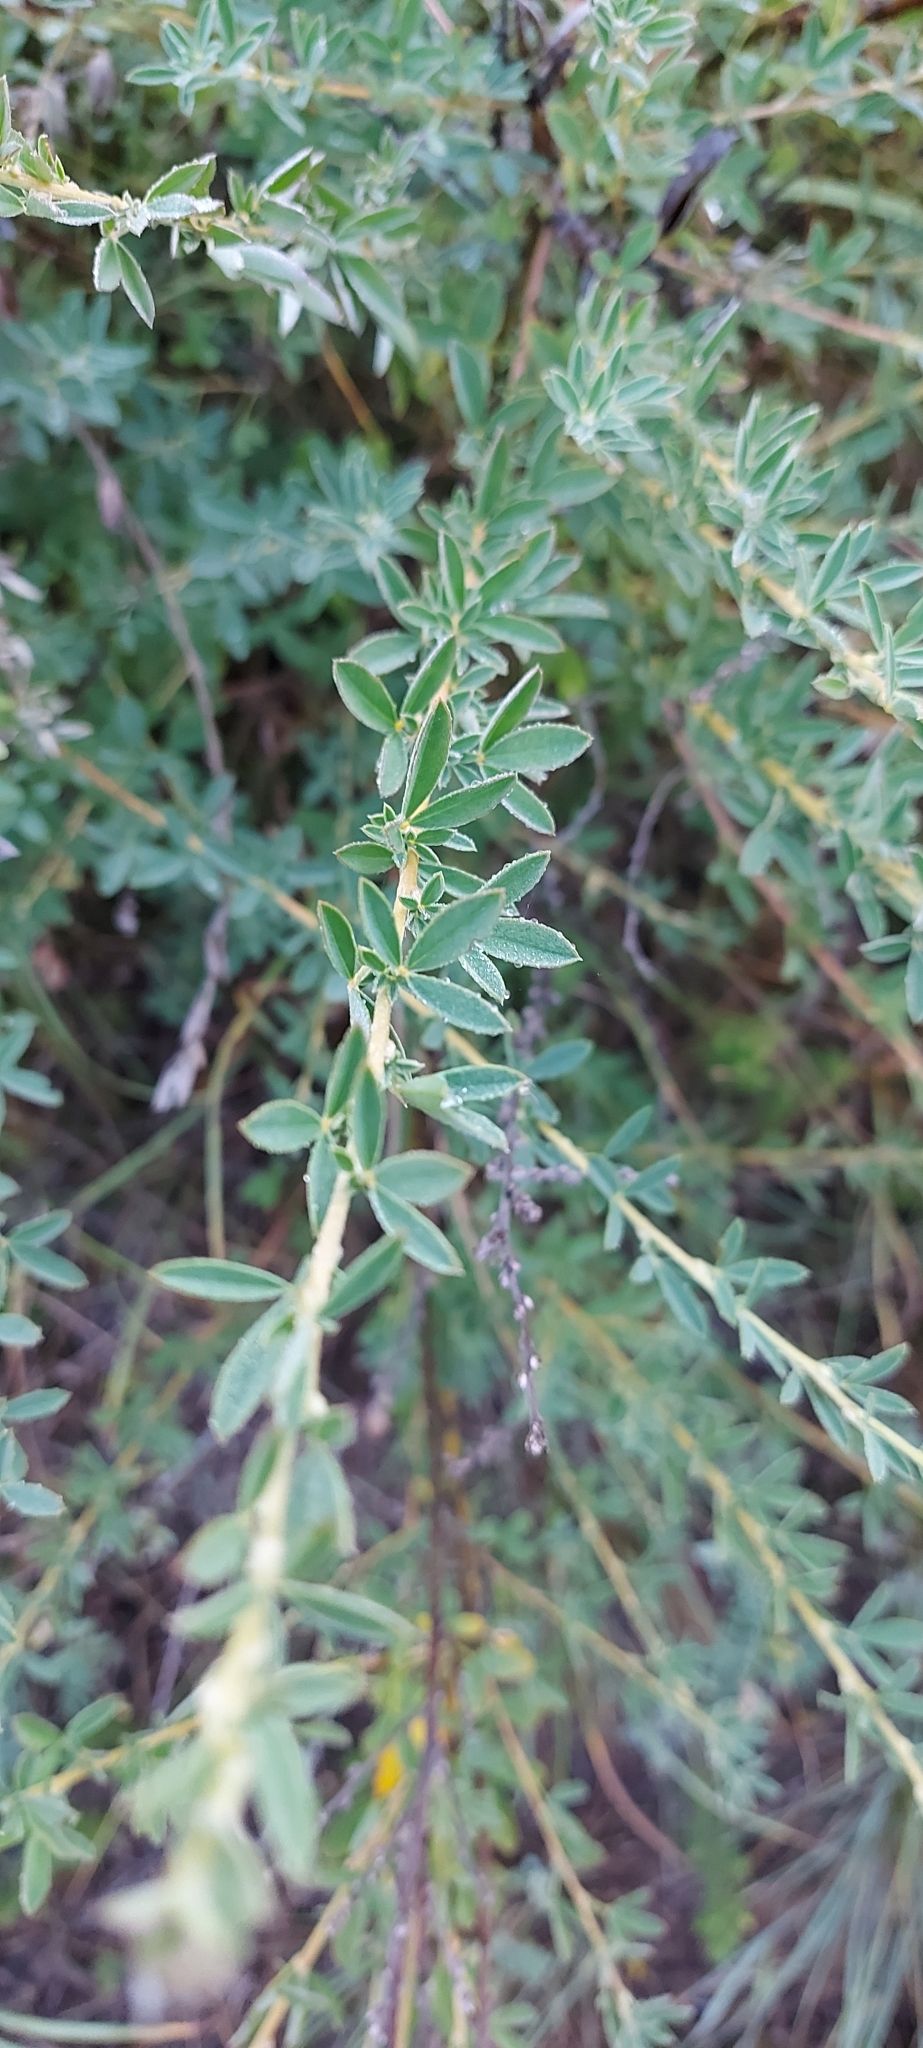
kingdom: Plantae
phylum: Tracheophyta
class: Magnoliopsida
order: Fabales
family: Fabaceae
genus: Chamaecytisus
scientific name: Chamaecytisus ruthenicus
